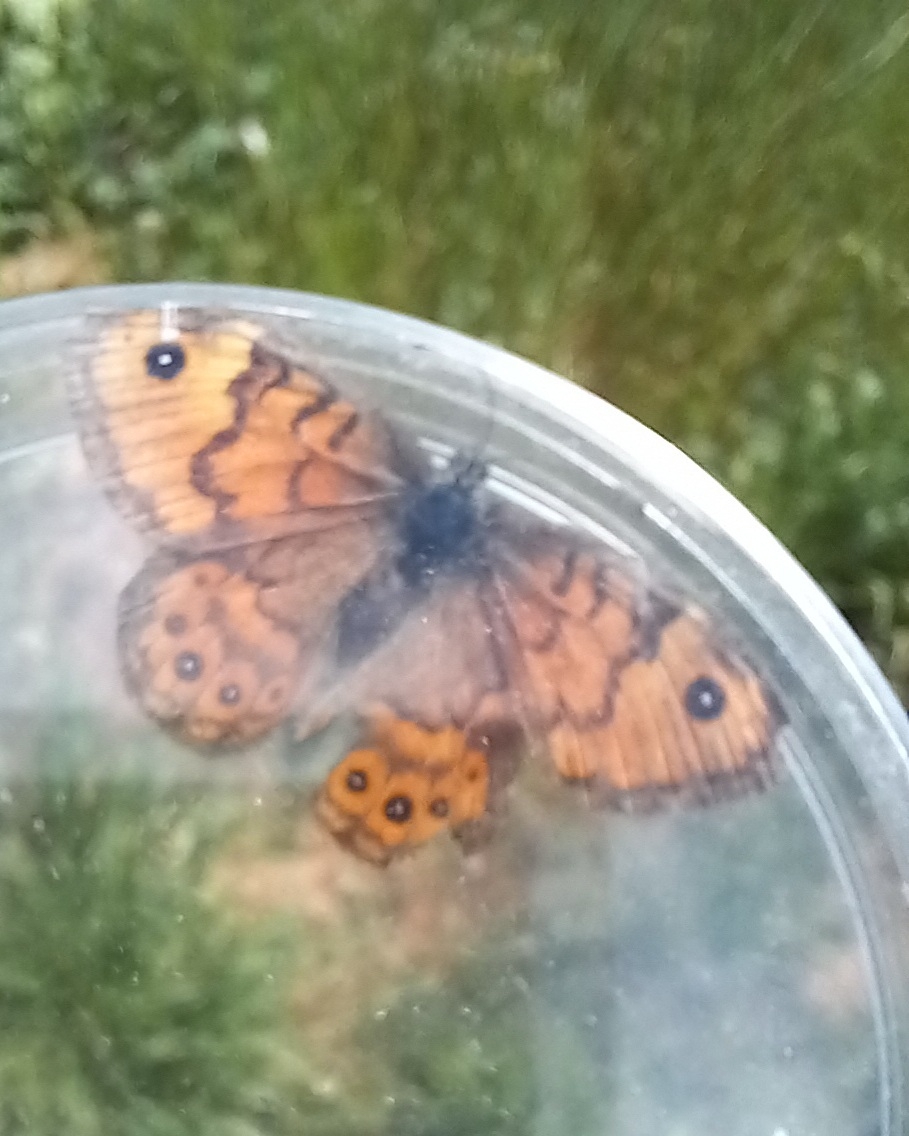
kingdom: Animalia
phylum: Arthropoda
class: Insecta
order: Lepidoptera
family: Nymphalidae
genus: Pararge
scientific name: Pararge Lasiommata megera
